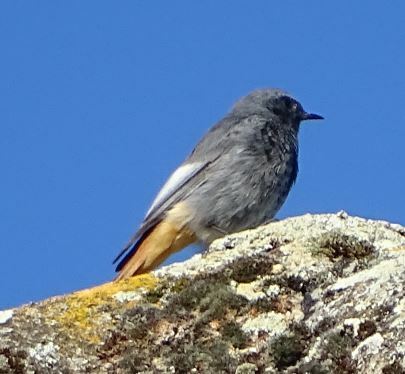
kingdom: Animalia
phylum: Chordata
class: Aves
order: Passeriformes
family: Muscicapidae
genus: Phoenicurus
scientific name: Phoenicurus ochruros
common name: Black redstart
